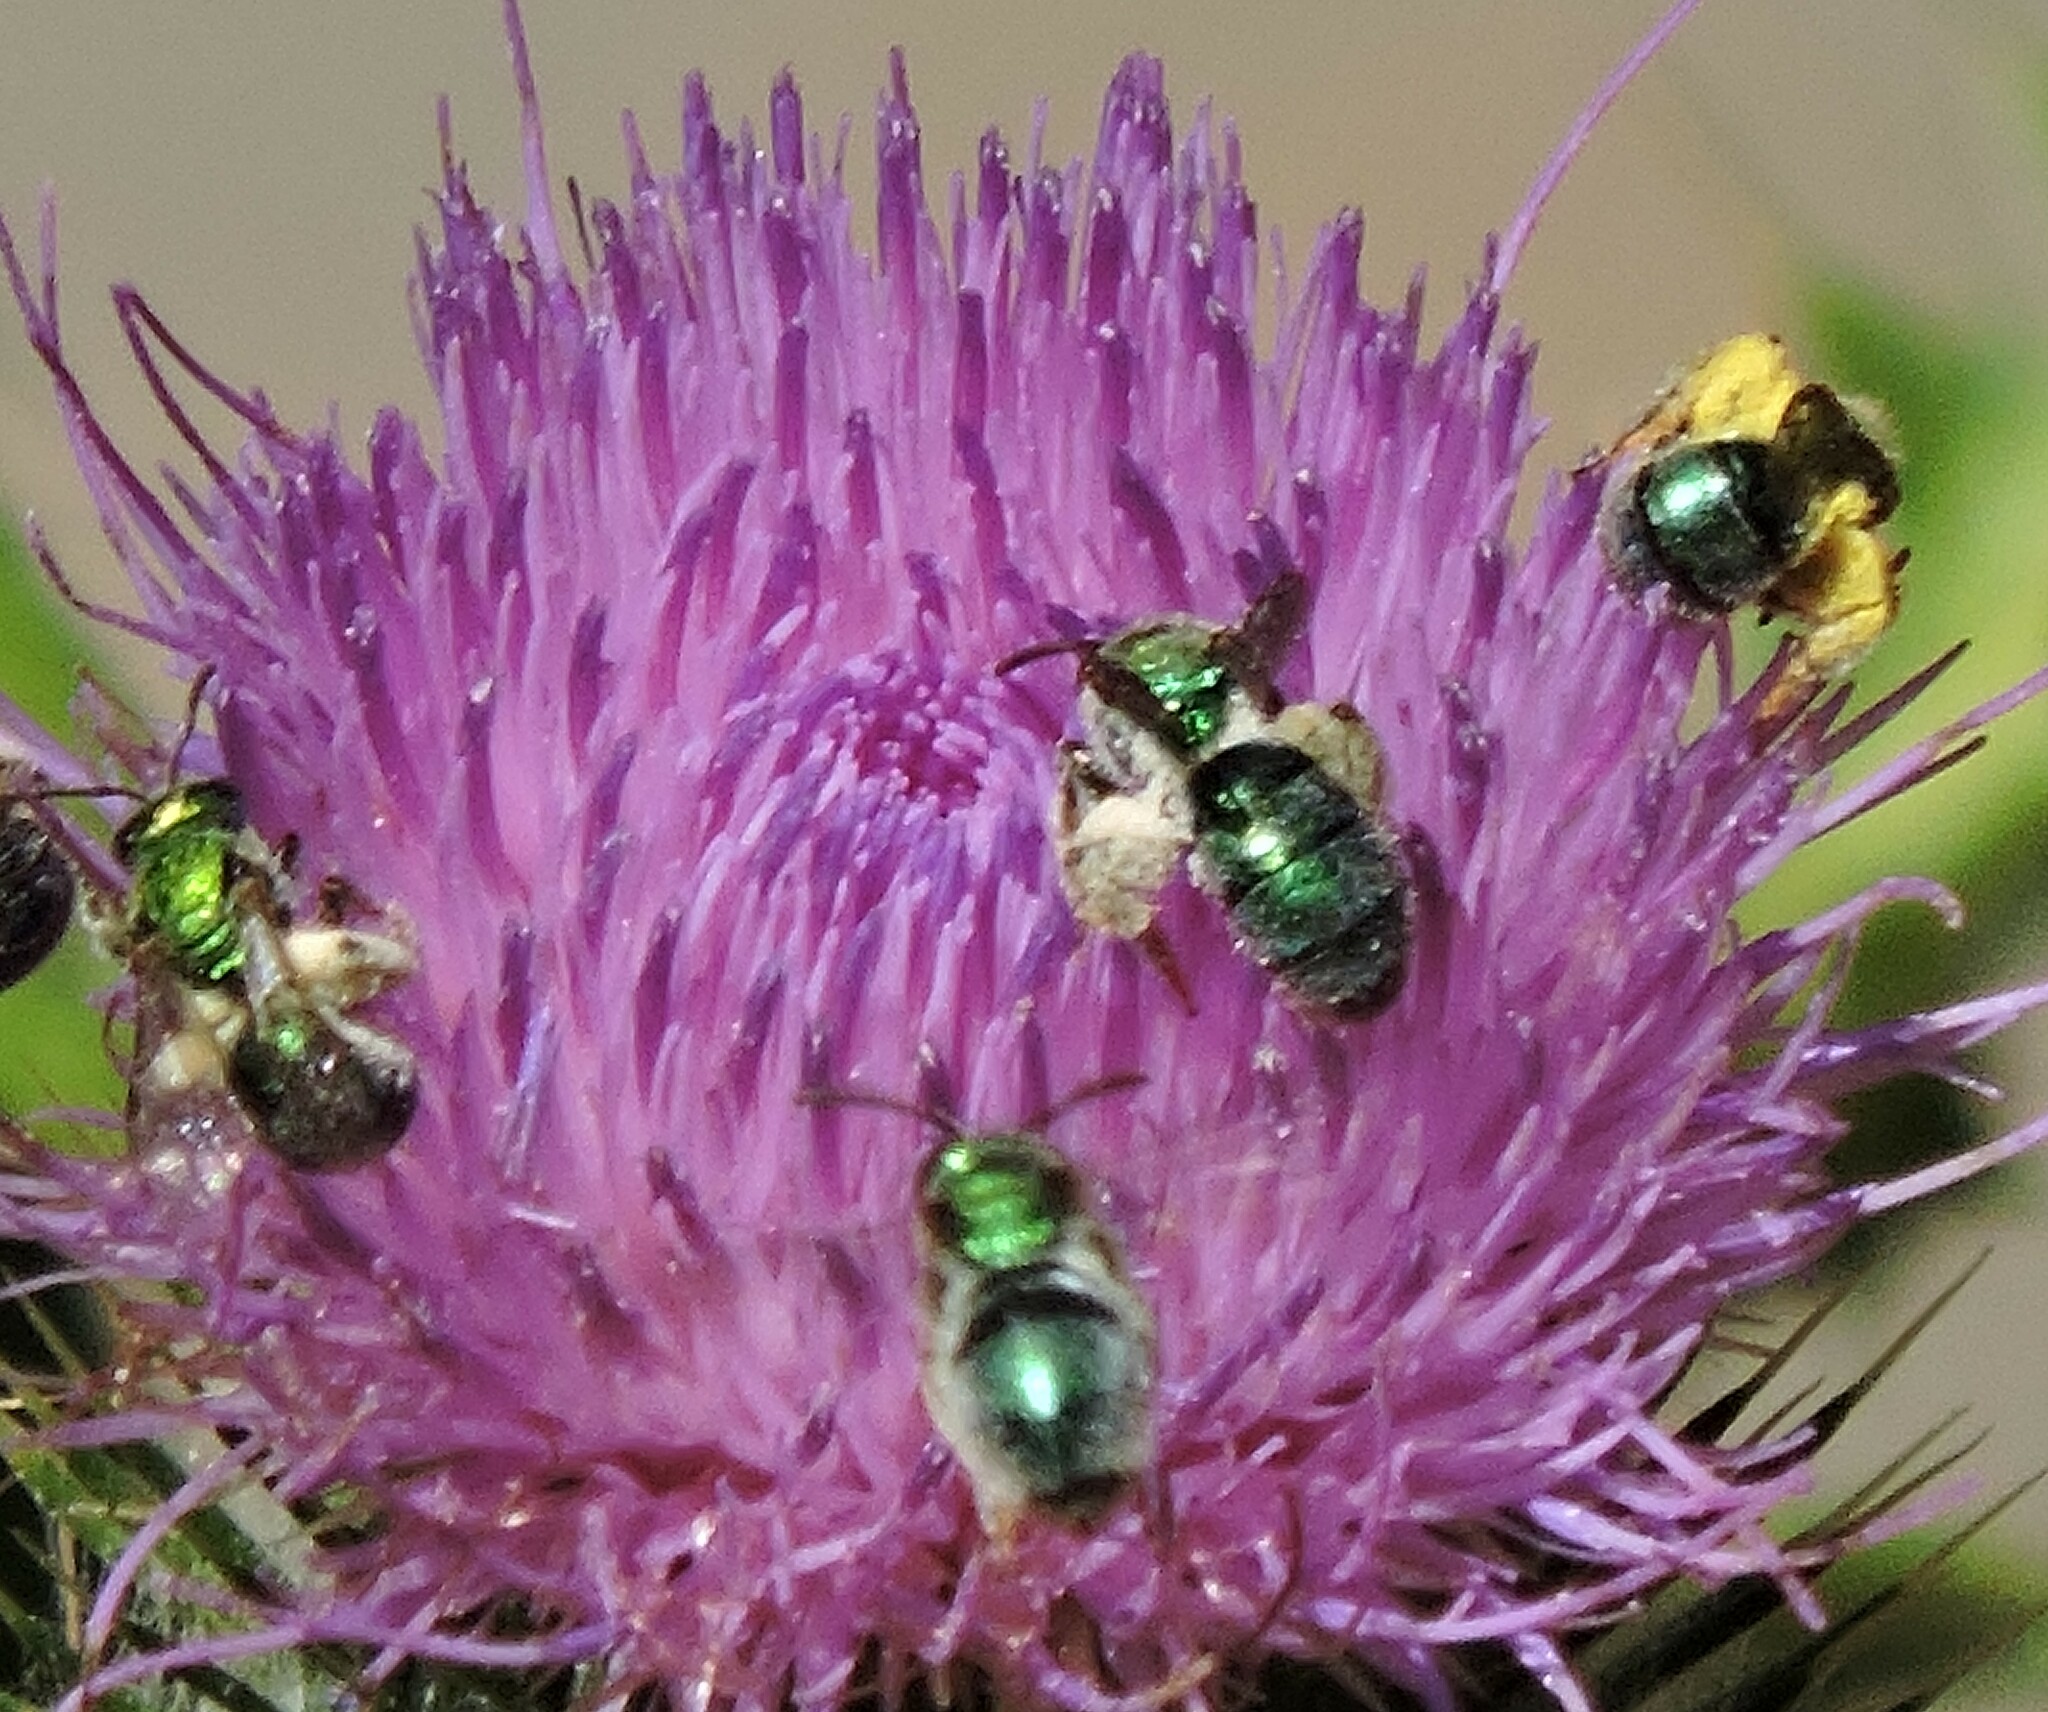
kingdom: Animalia
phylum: Arthropoda
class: Insecta
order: Hymenoptera
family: Halictidae
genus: Augochlorella
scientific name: Augochlorella pomoniella
